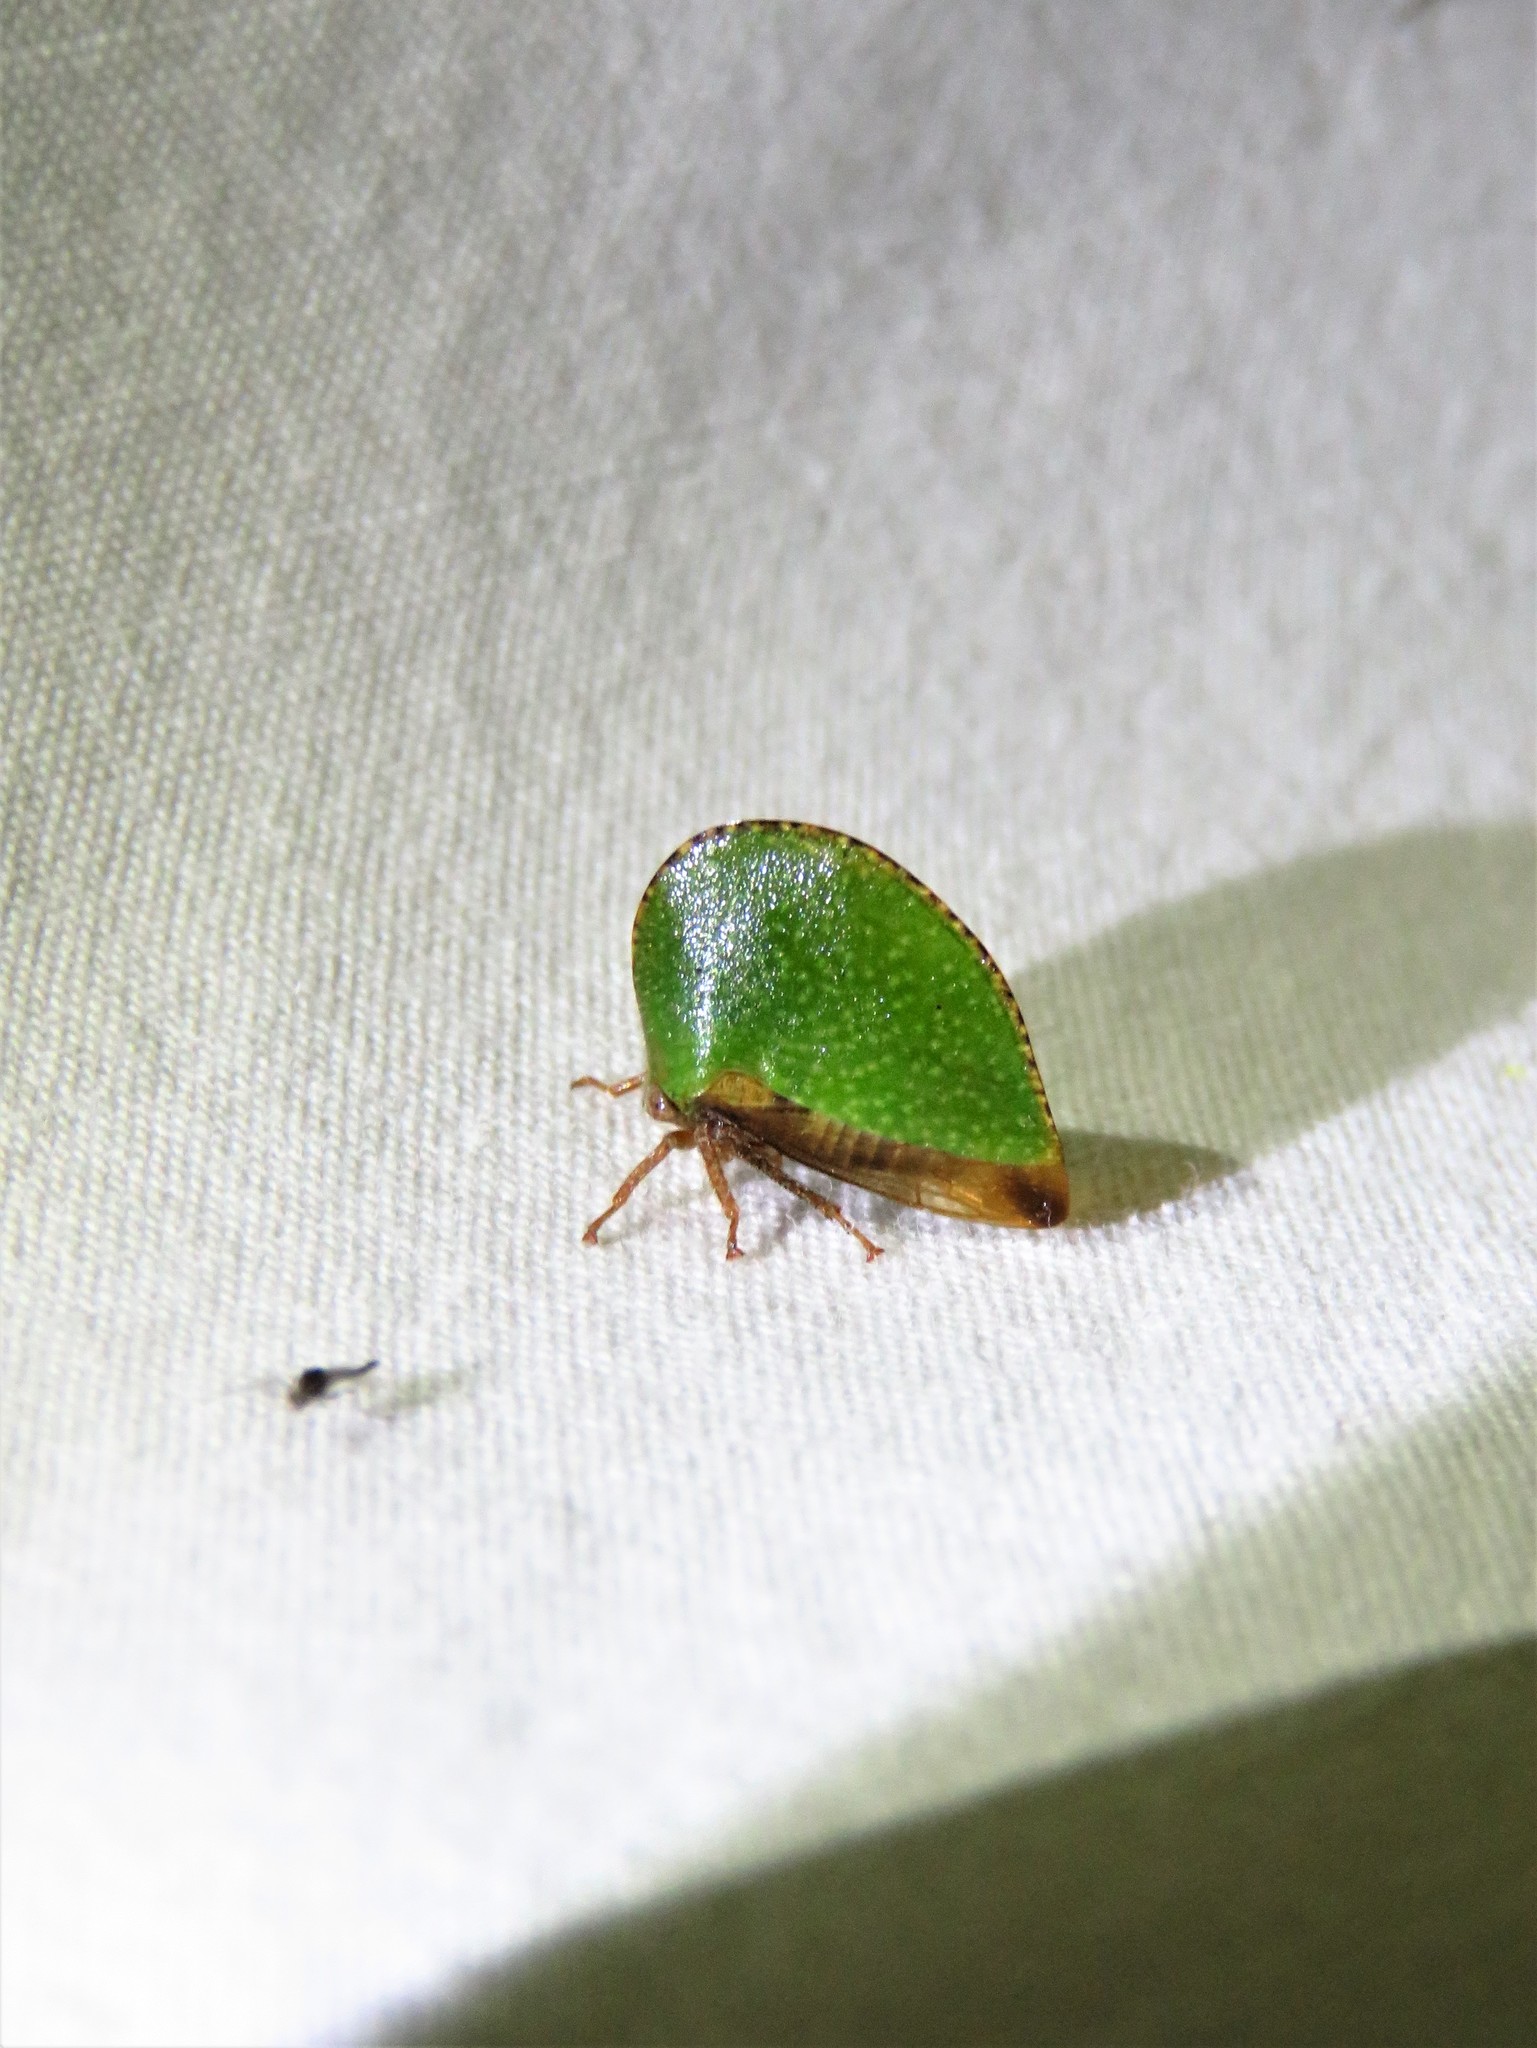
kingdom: Animalia
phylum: Arthropoda
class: Insecta
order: Hemiptera
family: Membracidae
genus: Archasia
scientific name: Archasia auriculata
